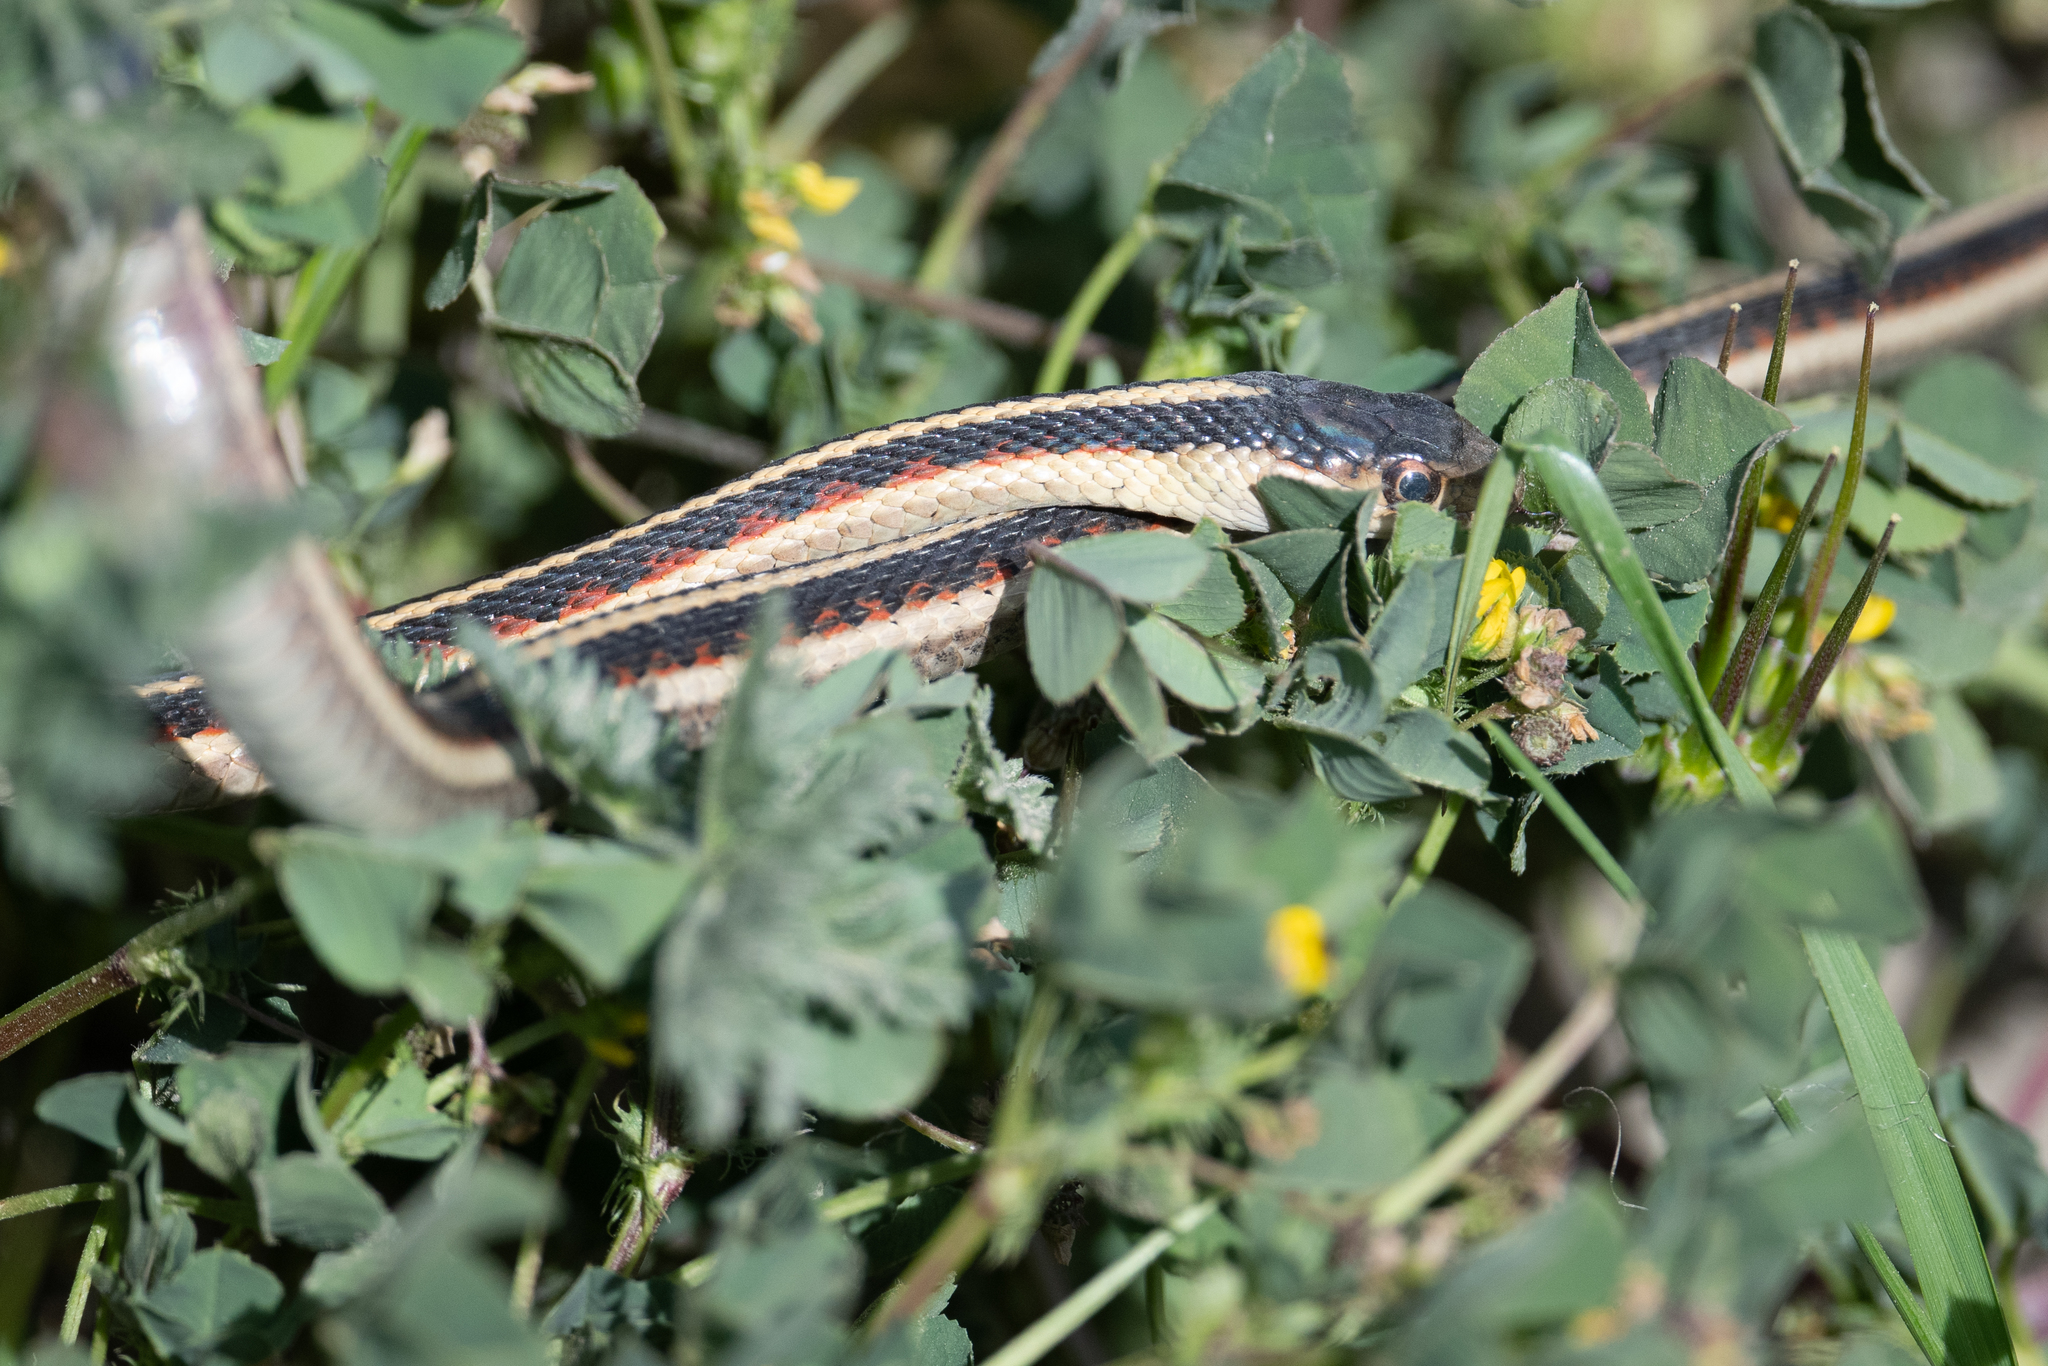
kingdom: Animalia
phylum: Chordata
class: Squamata
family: Colubridae
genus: Thamnophis
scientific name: Thamnophis sirtalis
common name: Common garter snake
